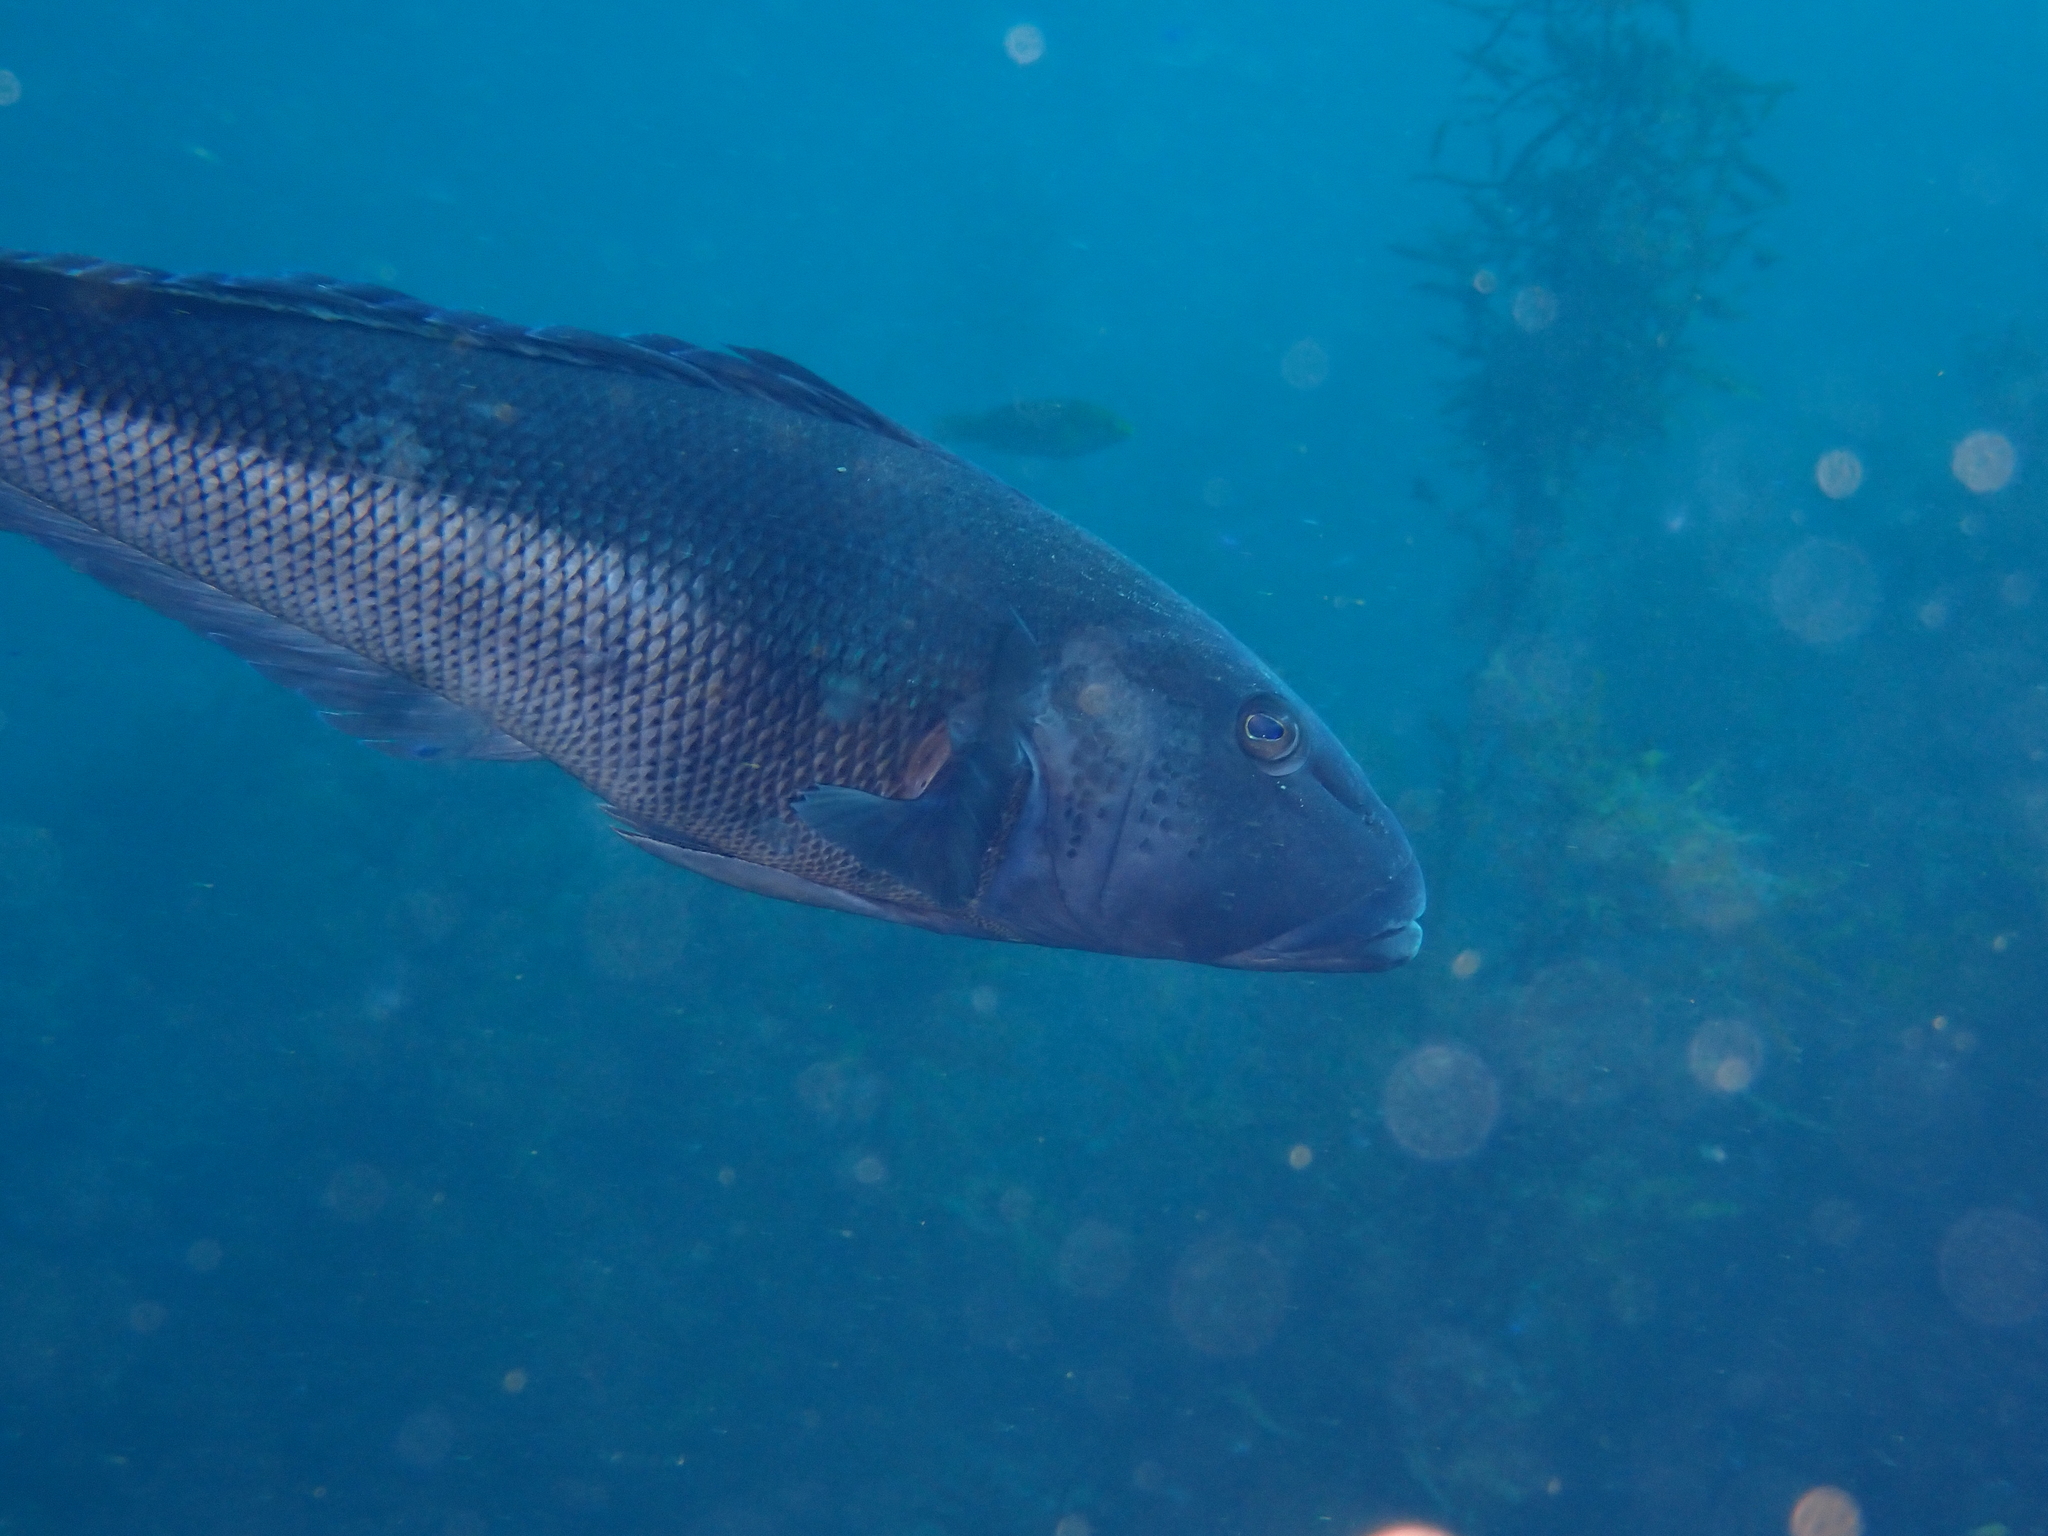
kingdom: Animalia
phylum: Chordata
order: Perciformes
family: Pinguipedidae
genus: Parapercis
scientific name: Parapercis colias
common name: Blue cod
